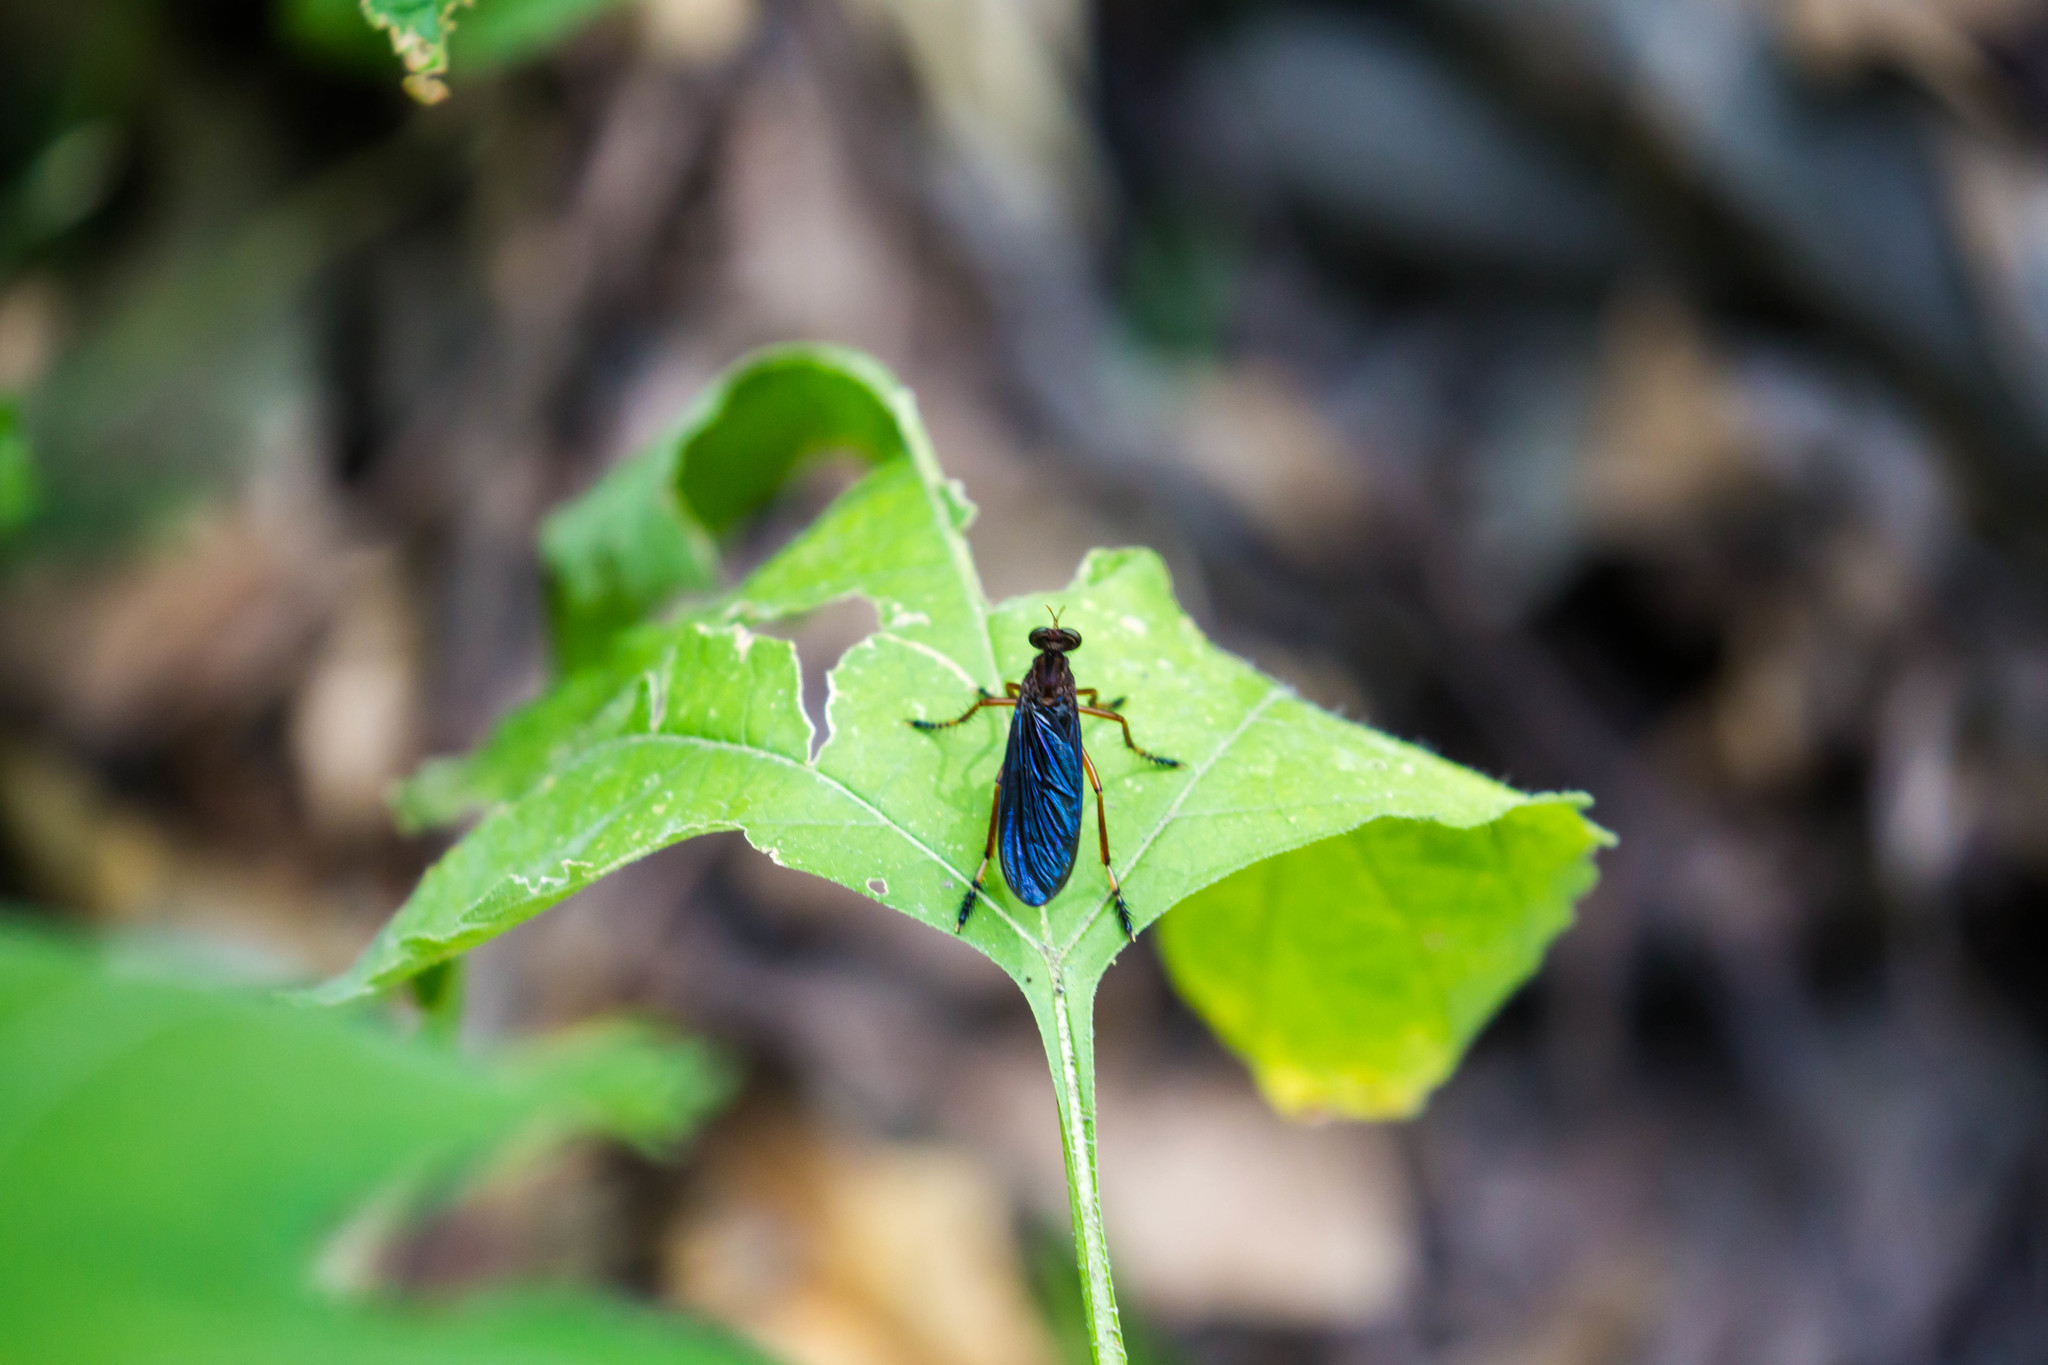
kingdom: Animalia
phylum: Arthropoda
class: Insecta
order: Diptera
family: Asilidae
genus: Diogmites
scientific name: Diogmites platypterus
